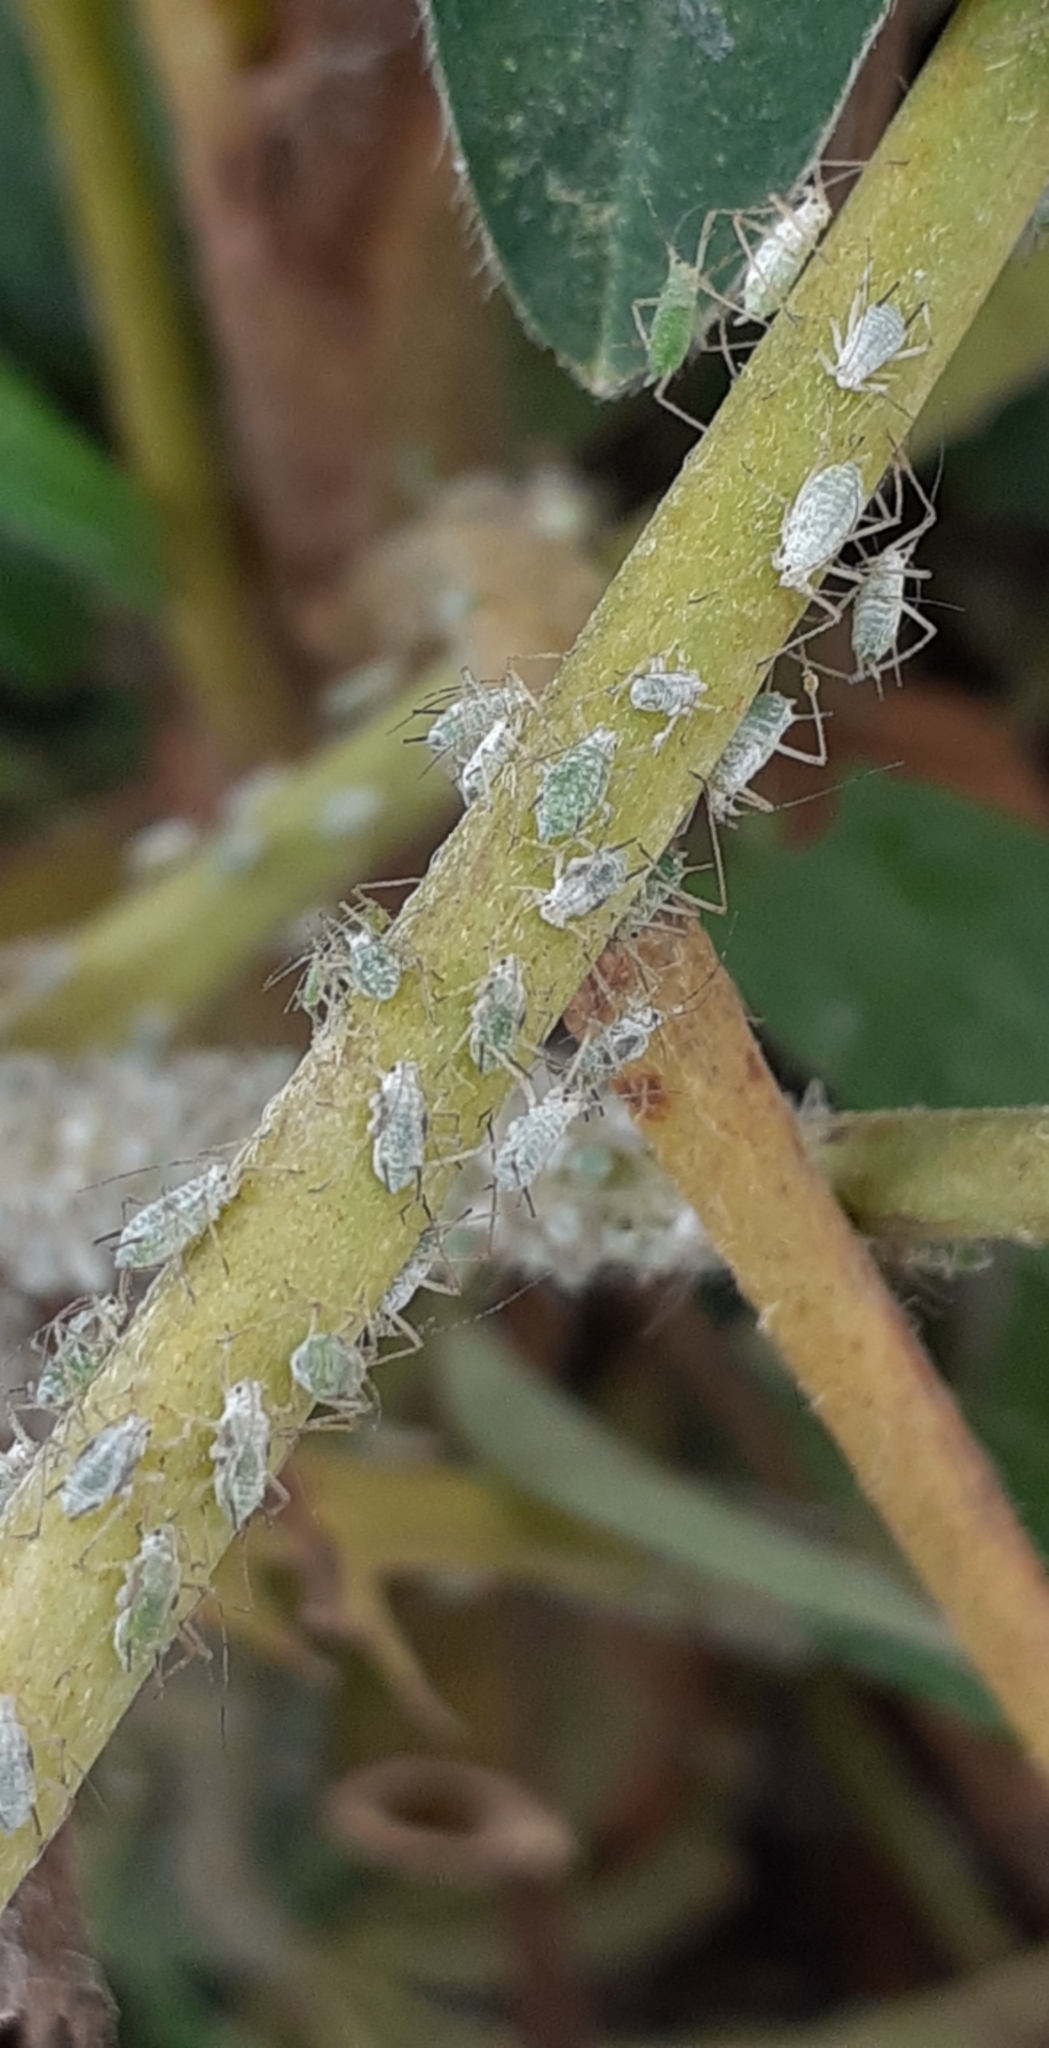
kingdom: Animalia
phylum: Arthropoda
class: Insecta
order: Hemiptera
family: Aphididae
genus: Macrosiphum
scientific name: Macrosiphum albifrons
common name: Lupine aphid
